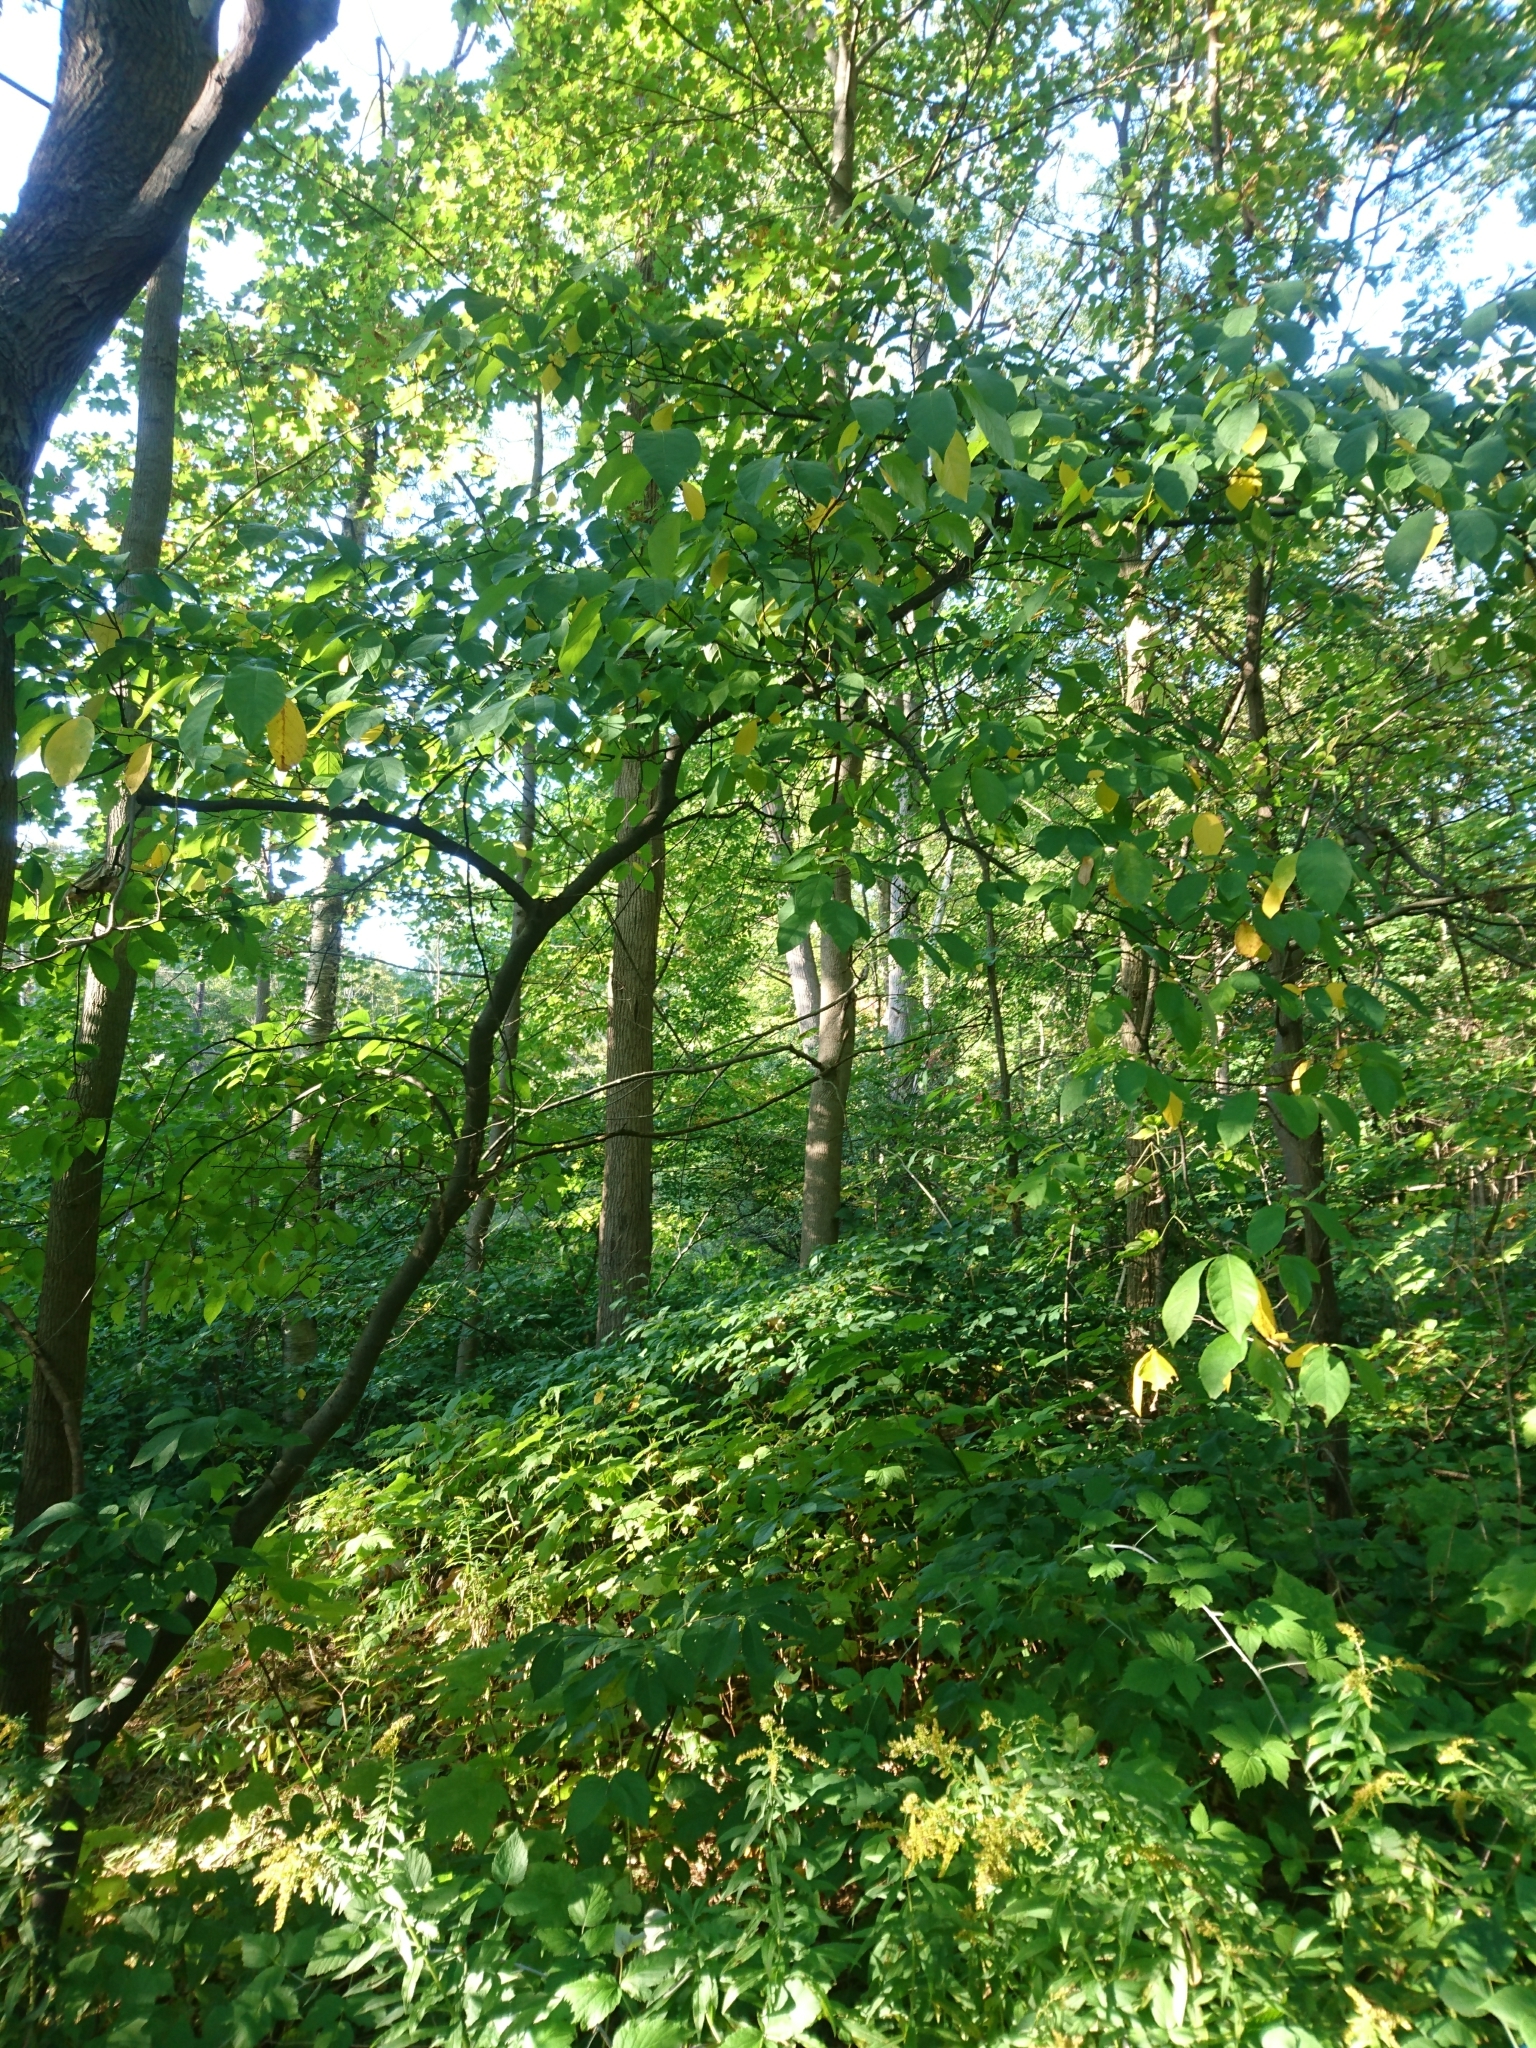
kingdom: Plantae
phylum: Tracheophyta
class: Magnoliopsida
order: Laurales
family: Lauraceae
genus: Lindera
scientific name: Lindera benzoin
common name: Spicebush
